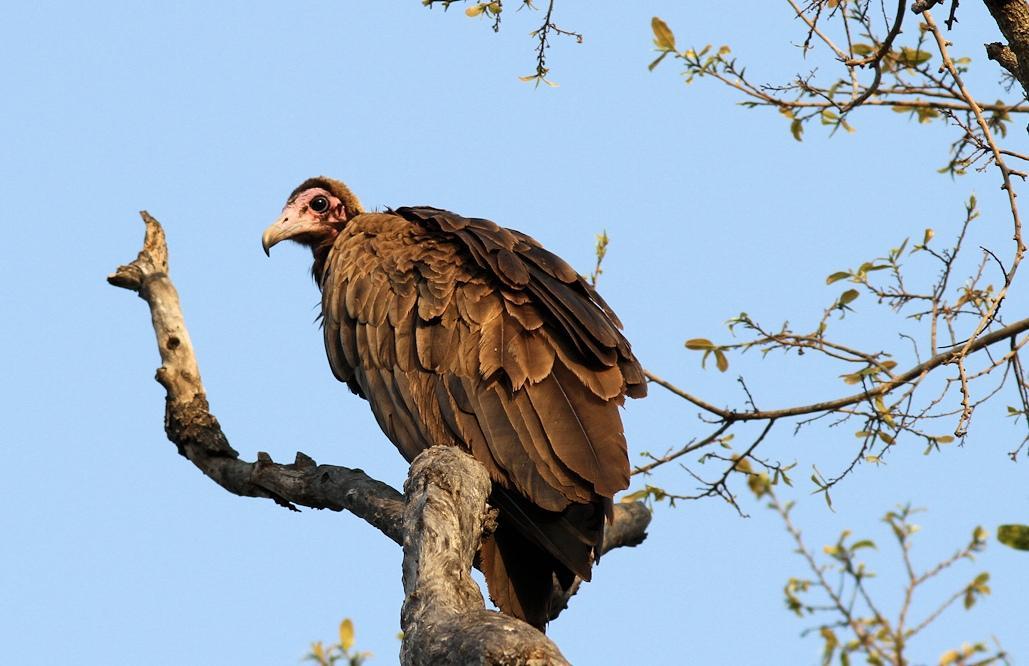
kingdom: Animalia
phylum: Chordata
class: Aves
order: Accipitriformes
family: Accipitridae
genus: Necrosyrtes
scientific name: Necrosyrtes monachus
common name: Hooded vulture
